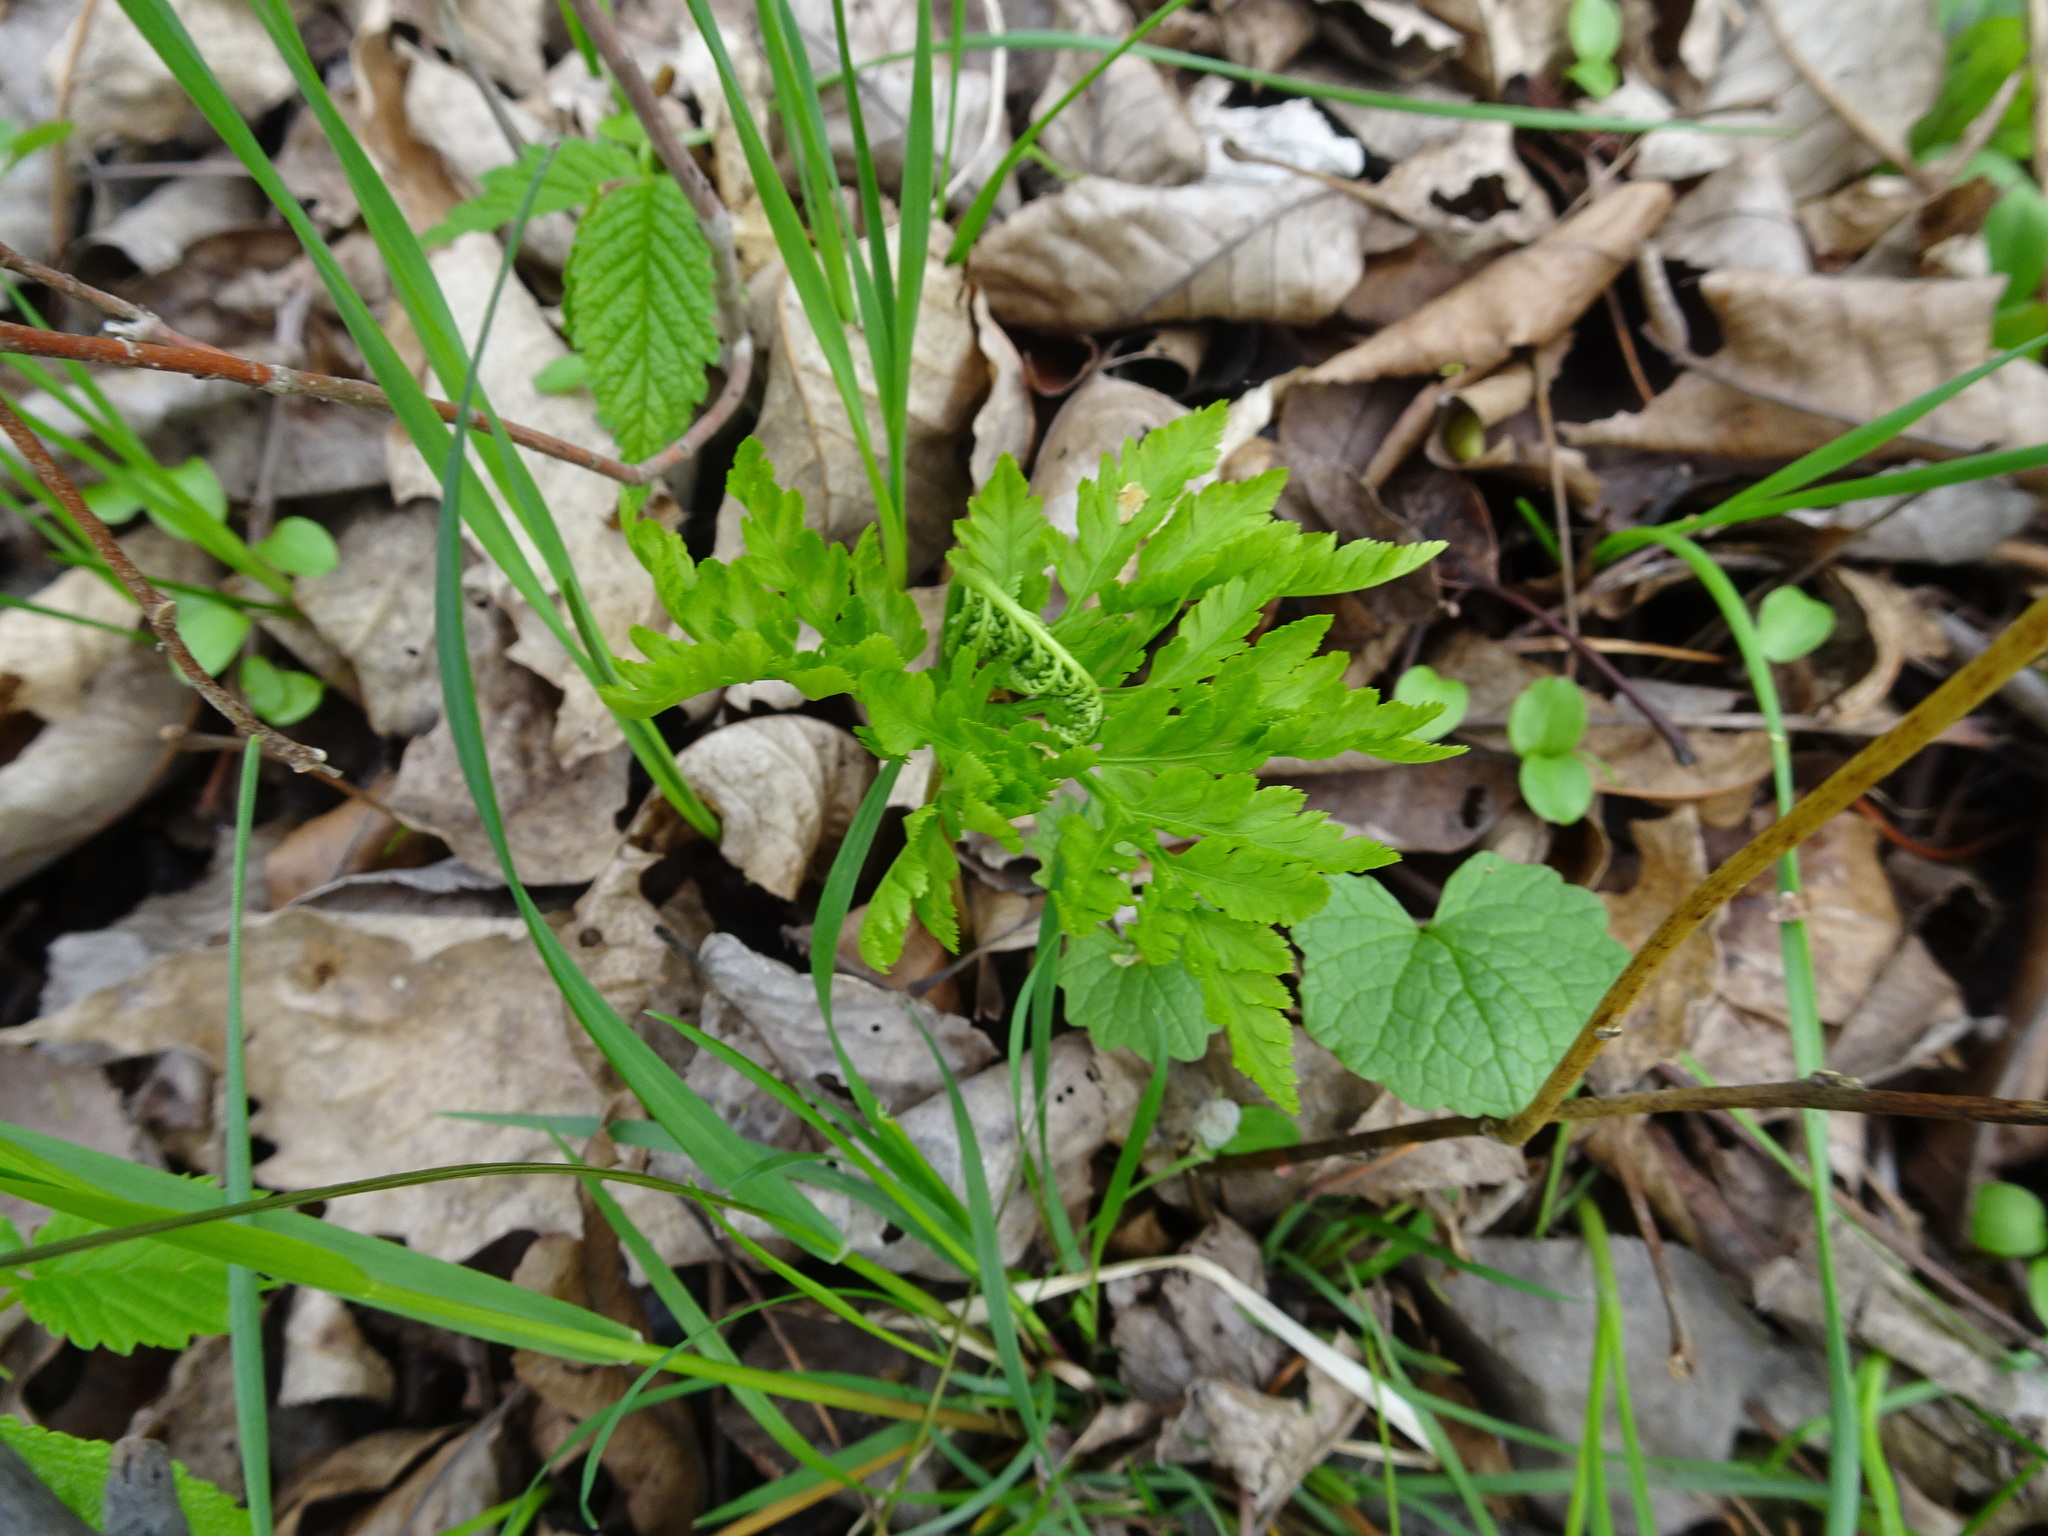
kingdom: Plantae
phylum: Tracheophyta
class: Polypodiopsida
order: Ophioglossales
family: Ophioglossaceae
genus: Botrypus
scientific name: Botrypus virginianus
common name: Common grapefern
